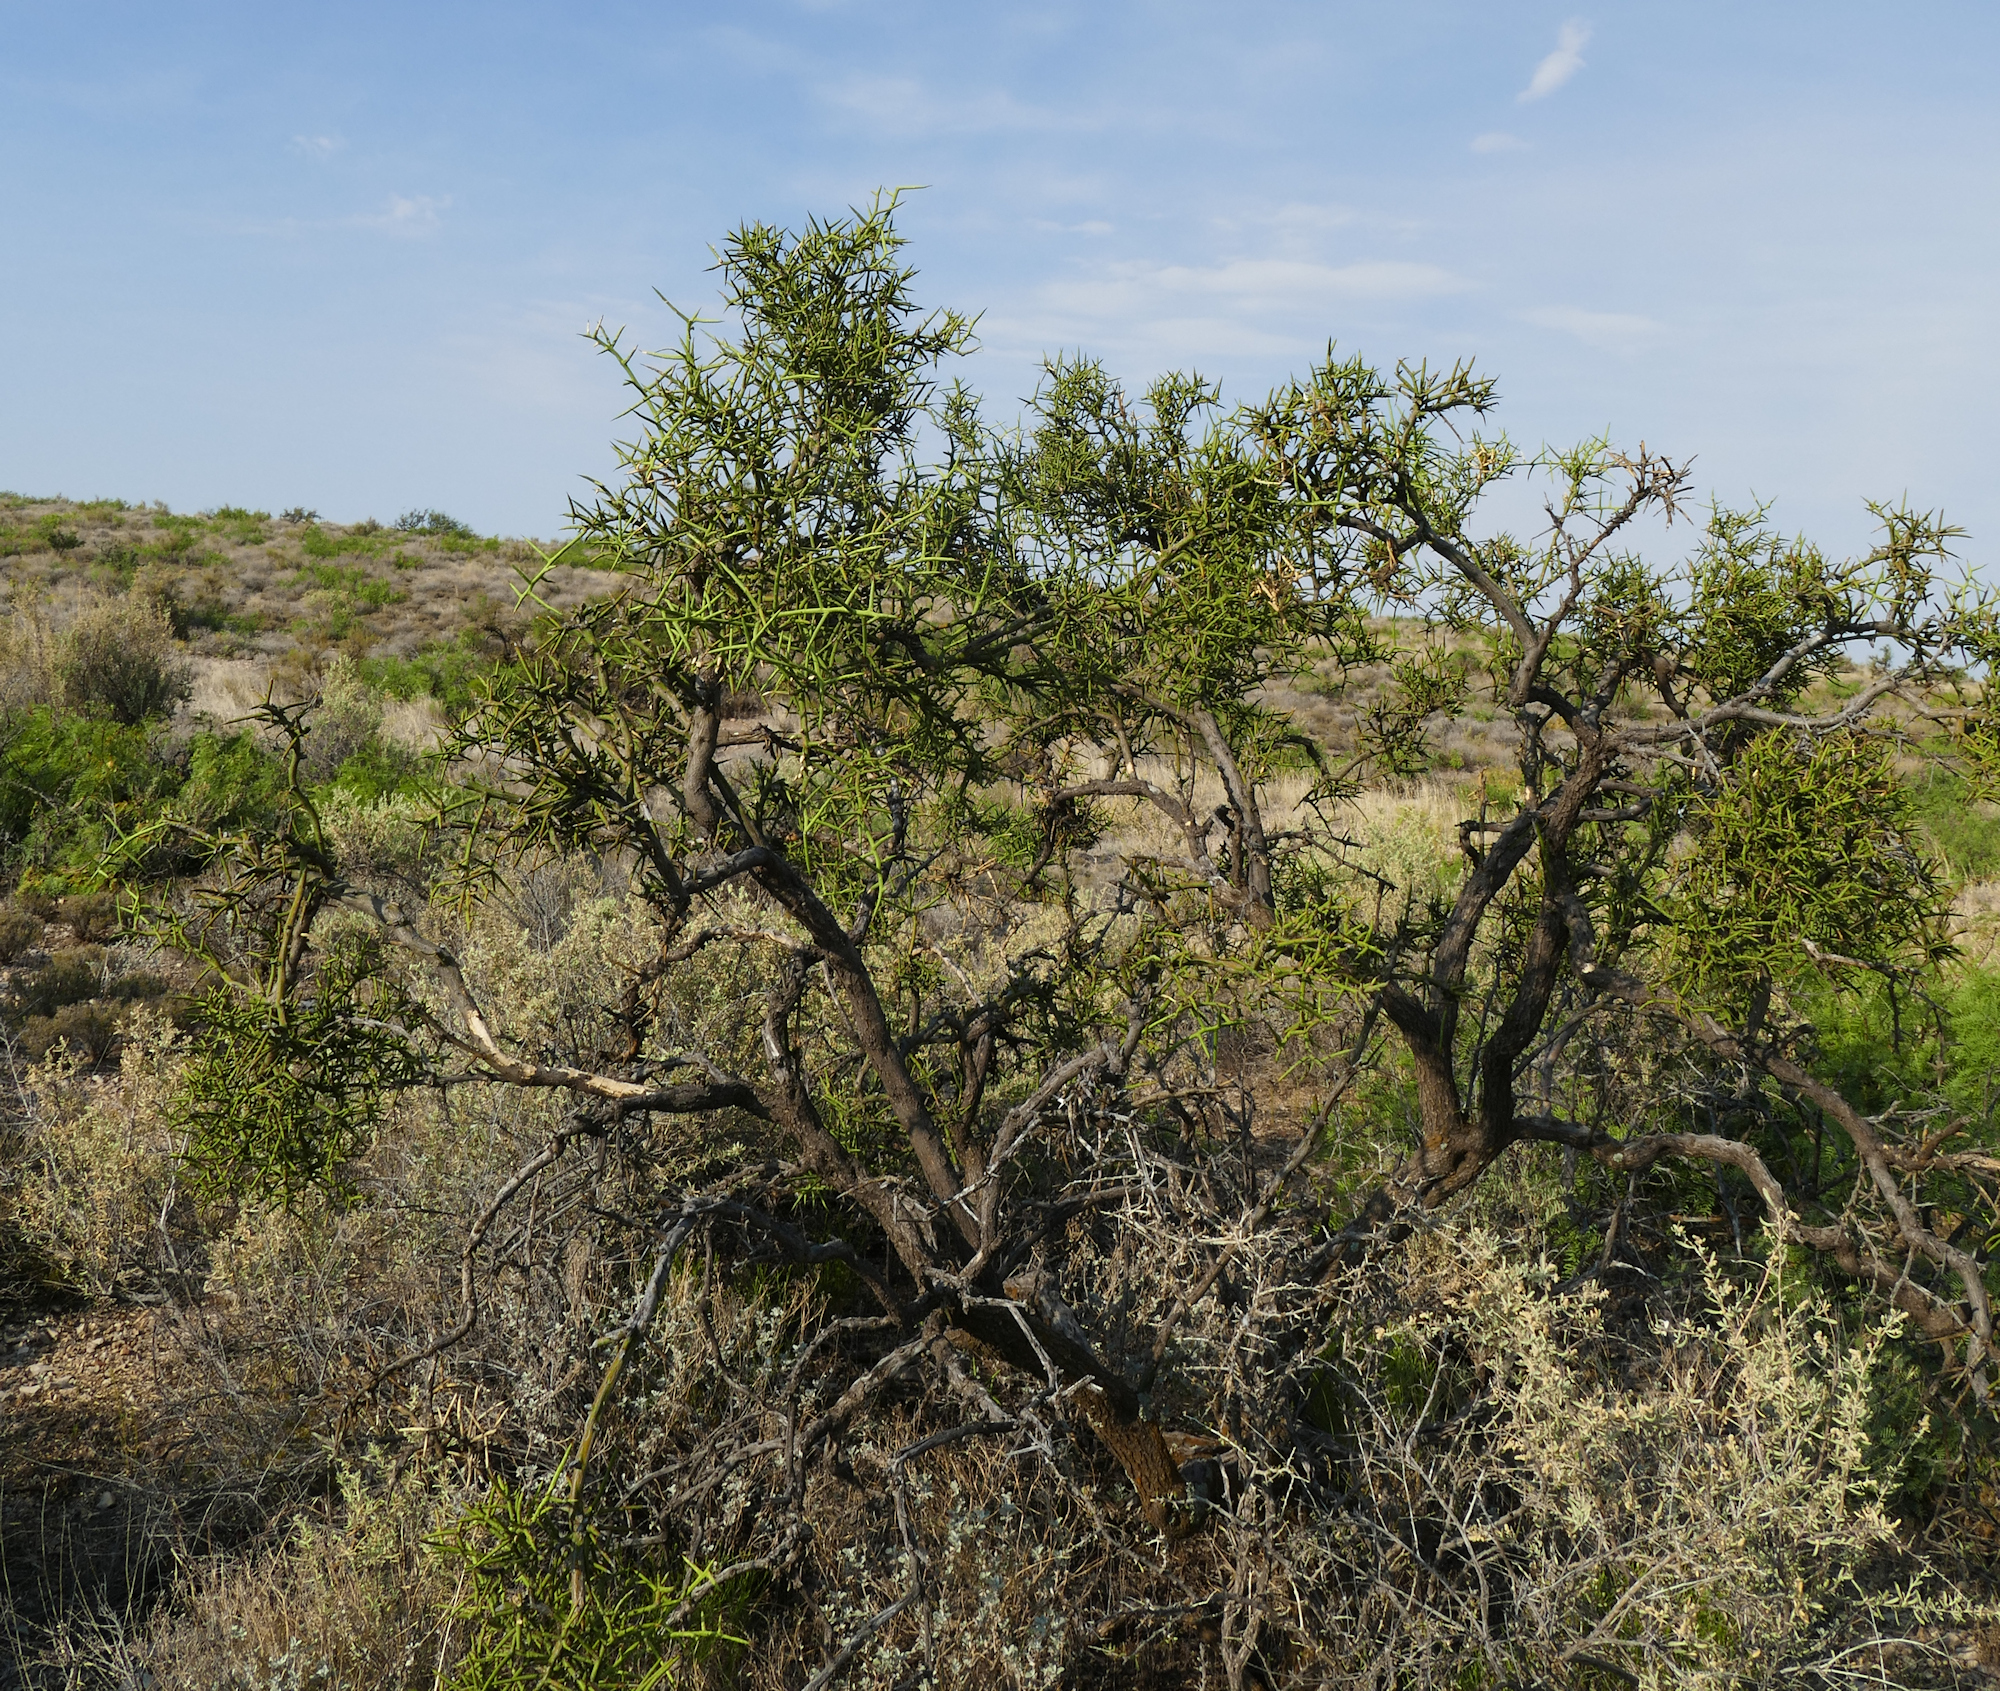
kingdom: Plantae
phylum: Tracheophyta
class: Magnoliopsida
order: Brassicales
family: Koeberliniaceae
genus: Koeberlinia
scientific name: Koeberlinia spinosa
